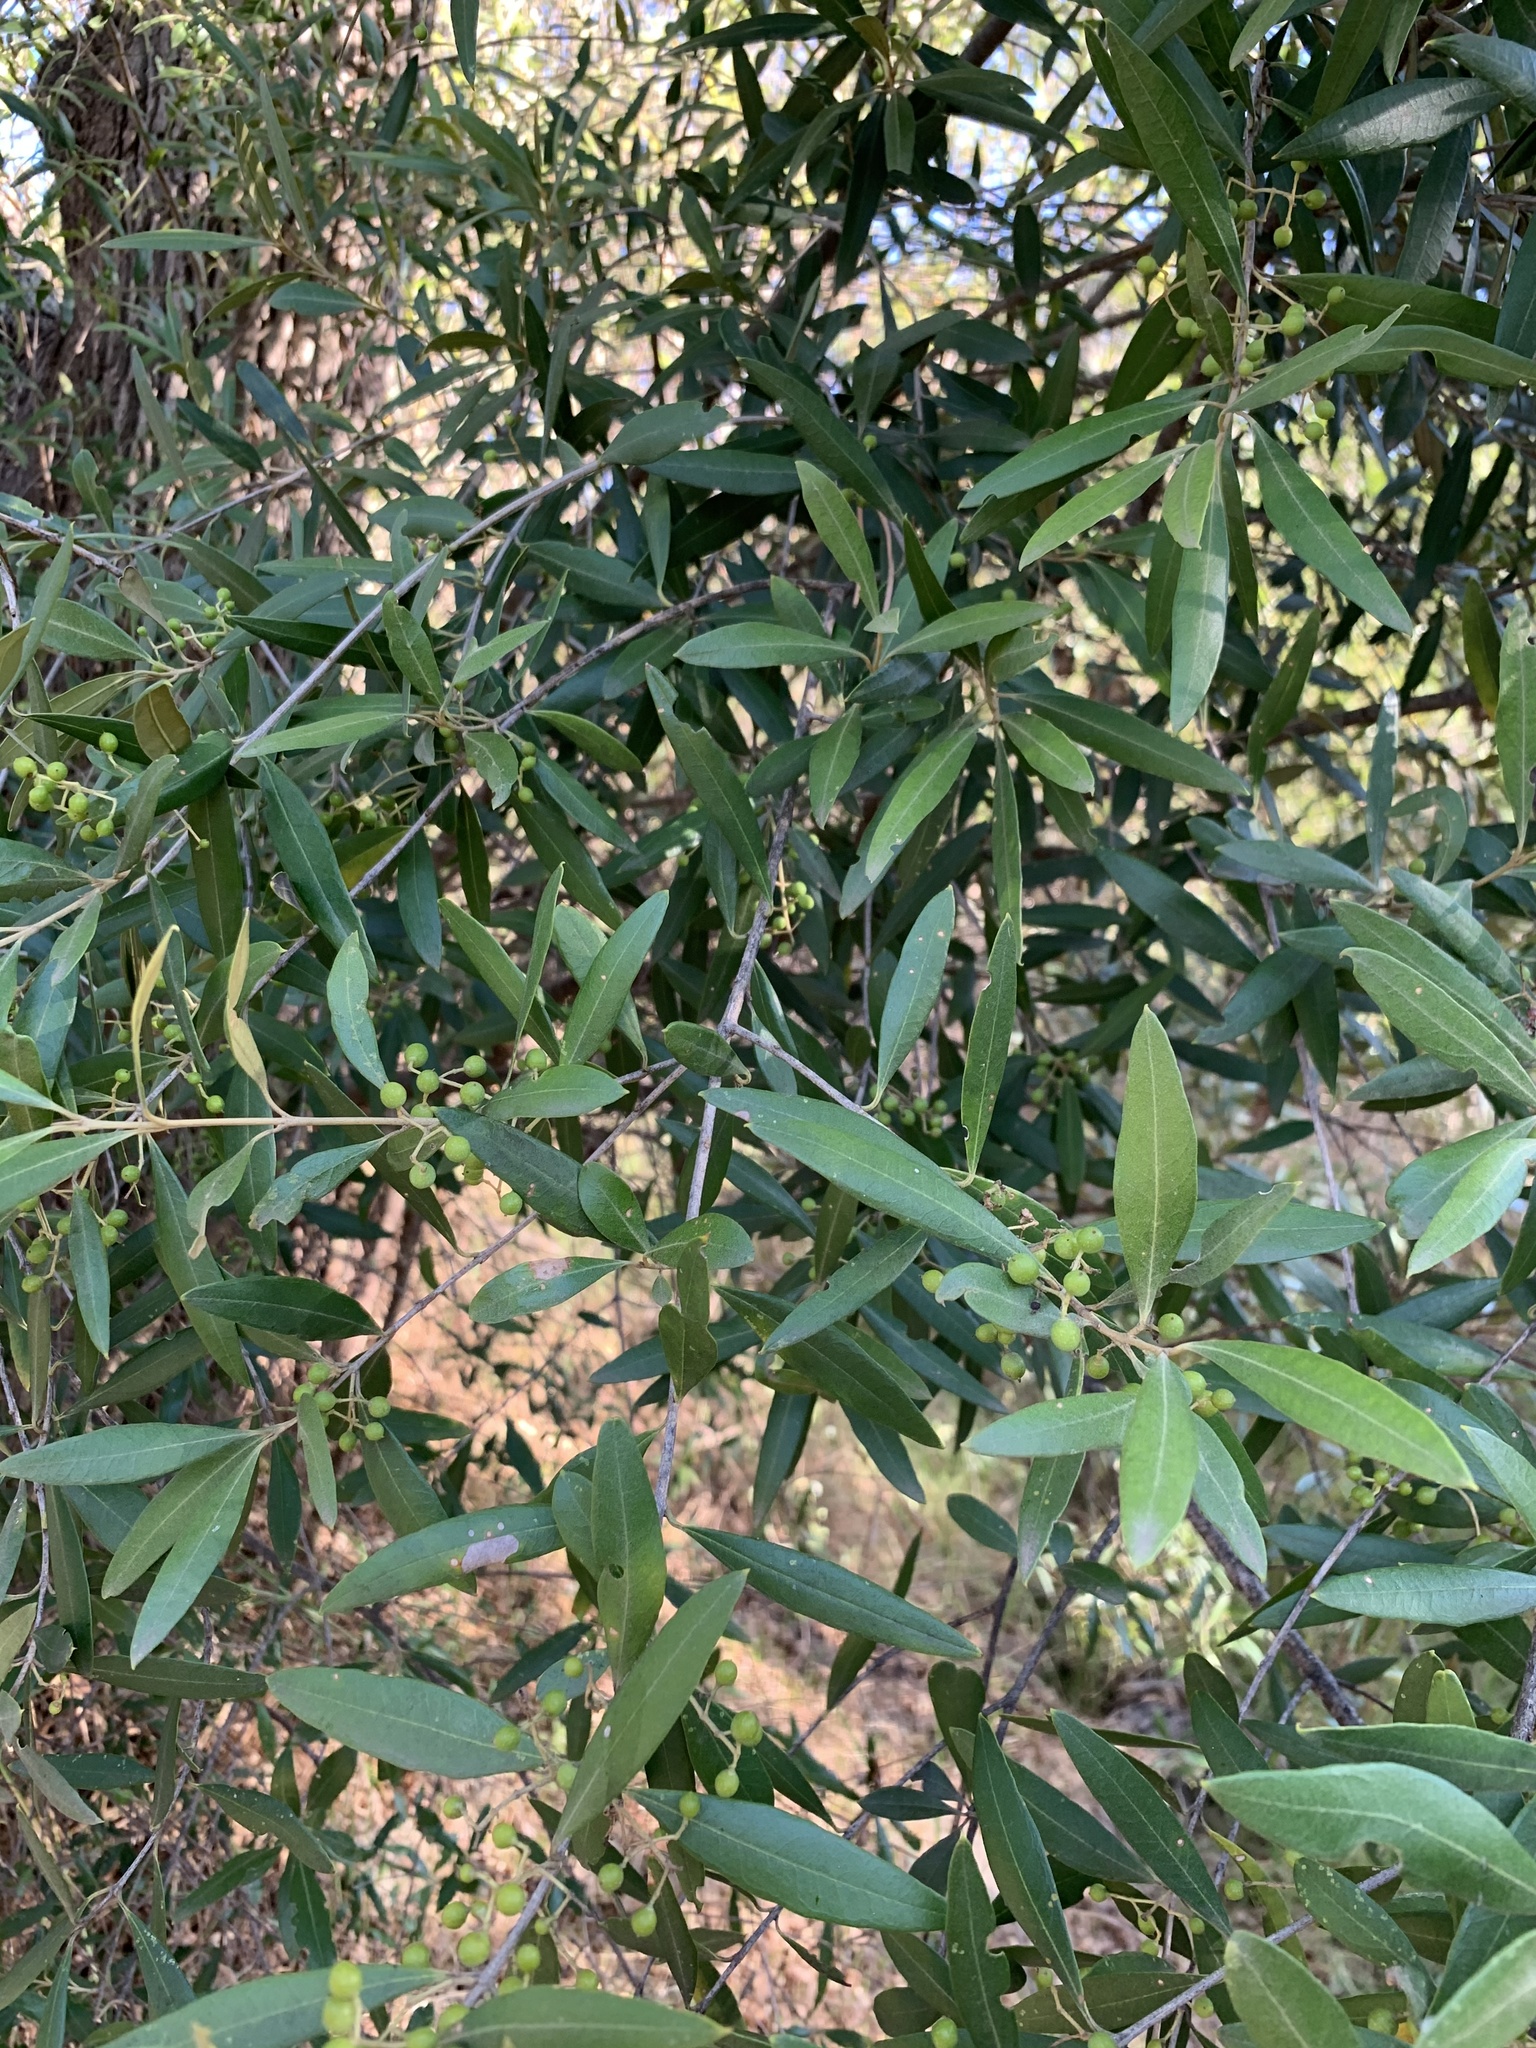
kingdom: Plantae
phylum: Tracheophyta
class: Magnoliopsida
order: Lamiales
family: Oleaceae
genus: Olea
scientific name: Olea europaea
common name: Olive
